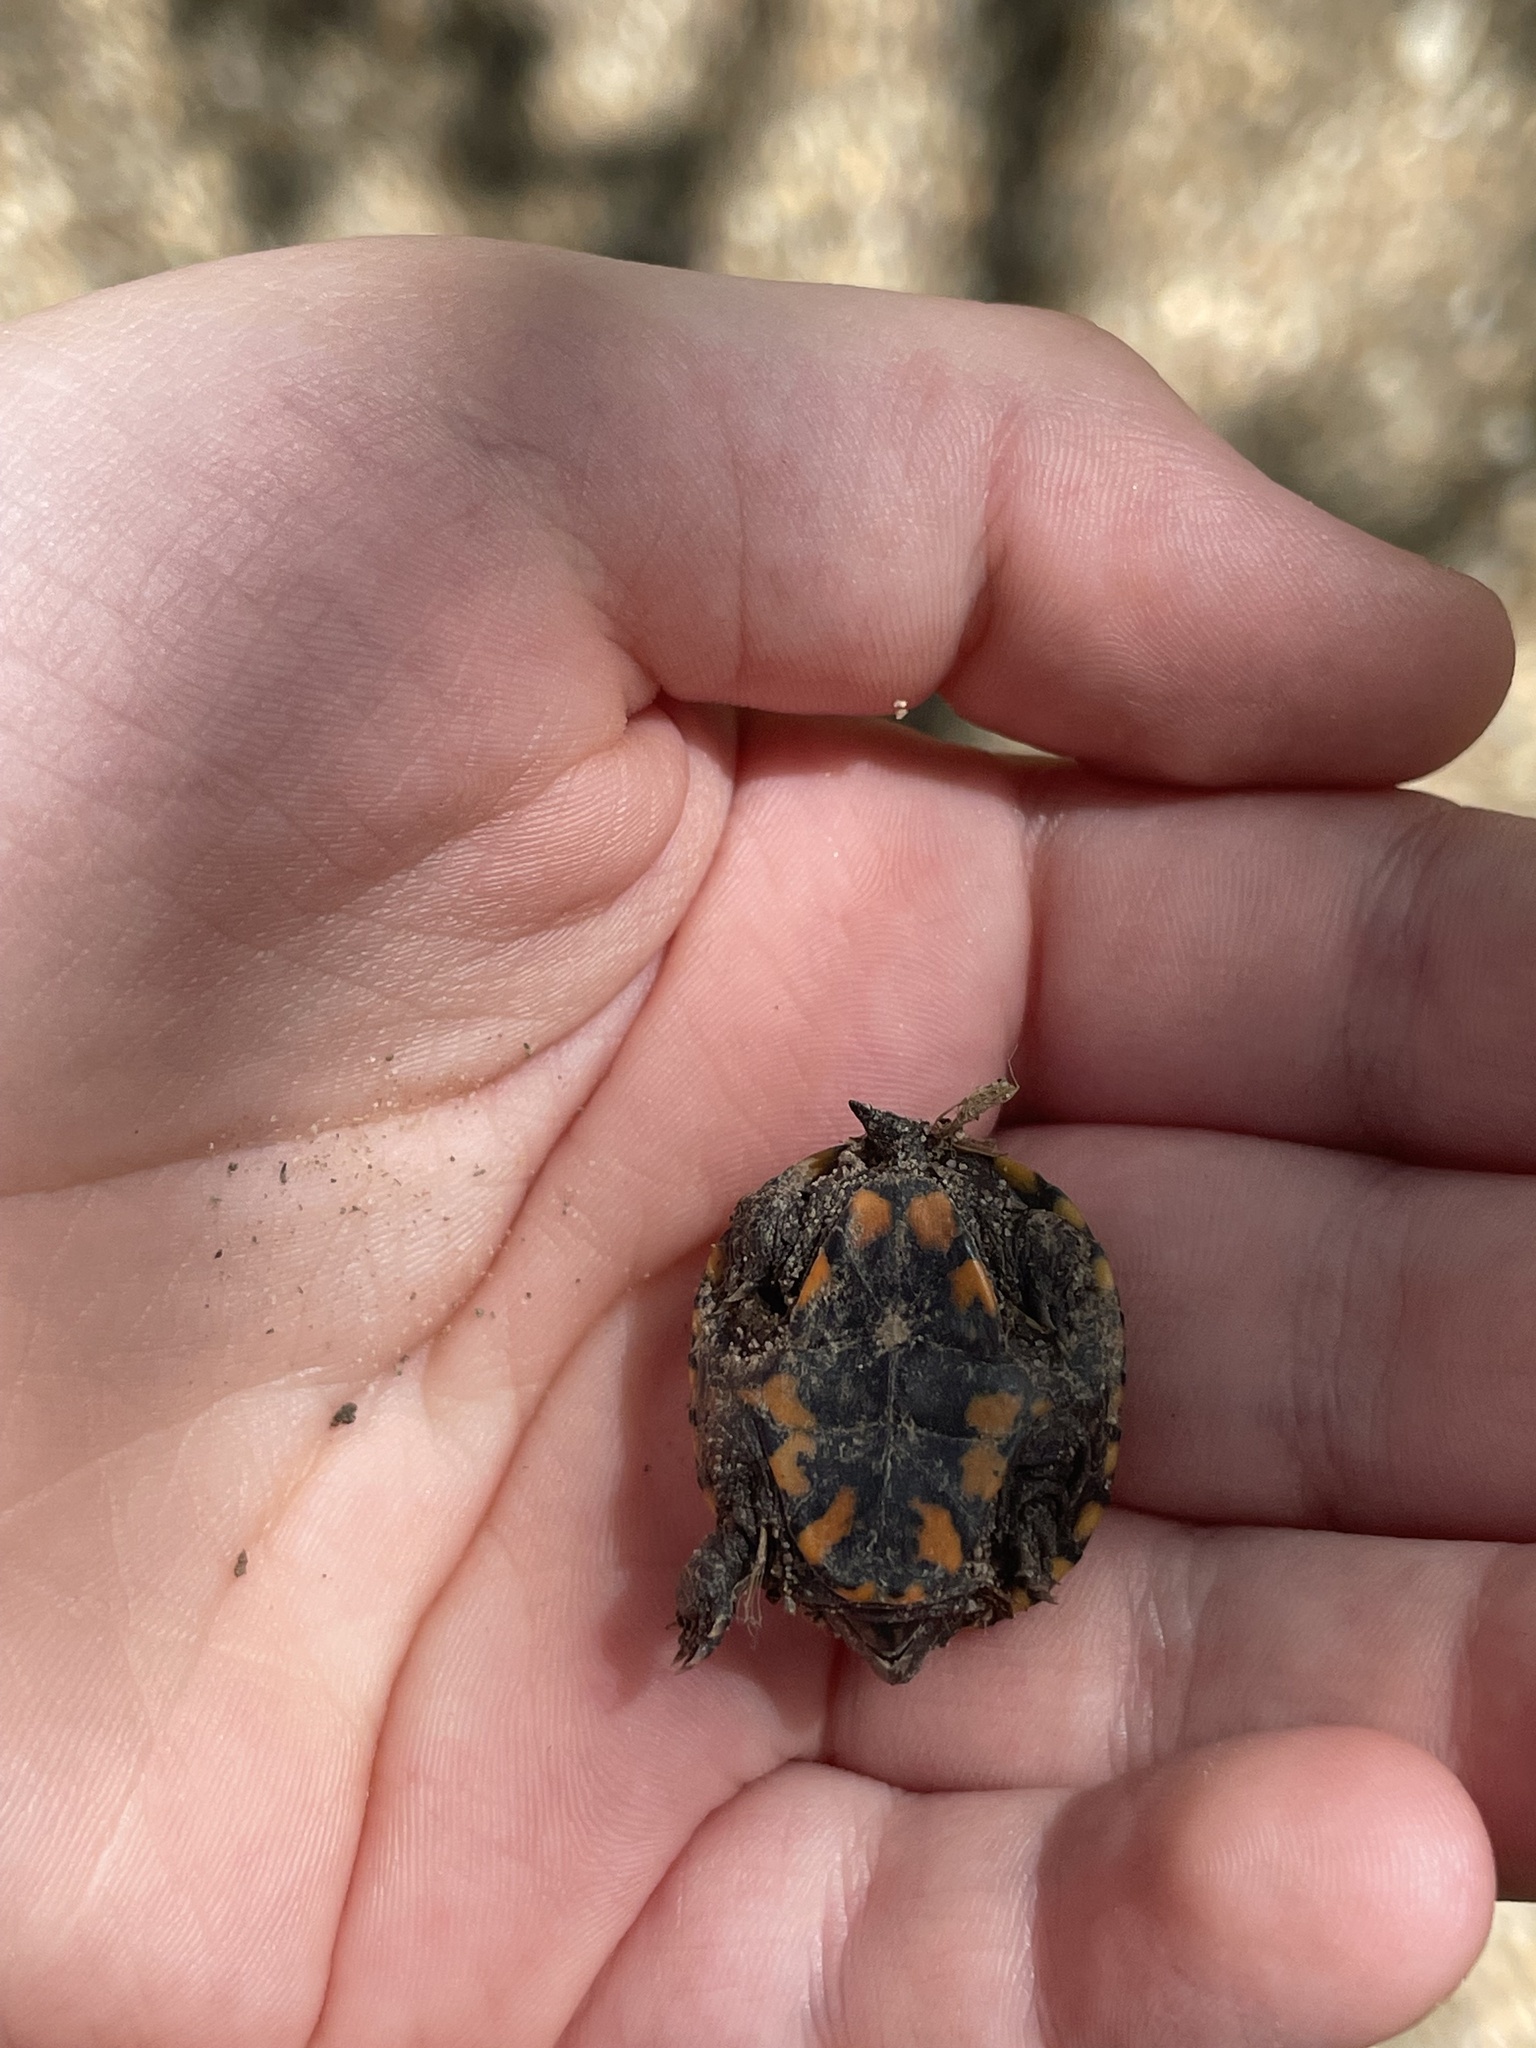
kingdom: Animalia
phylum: Chordata
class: Testudines
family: Kinosternidae
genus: Kinosternon
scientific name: Kinosternon subrubrum
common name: Eastern mud turtle
